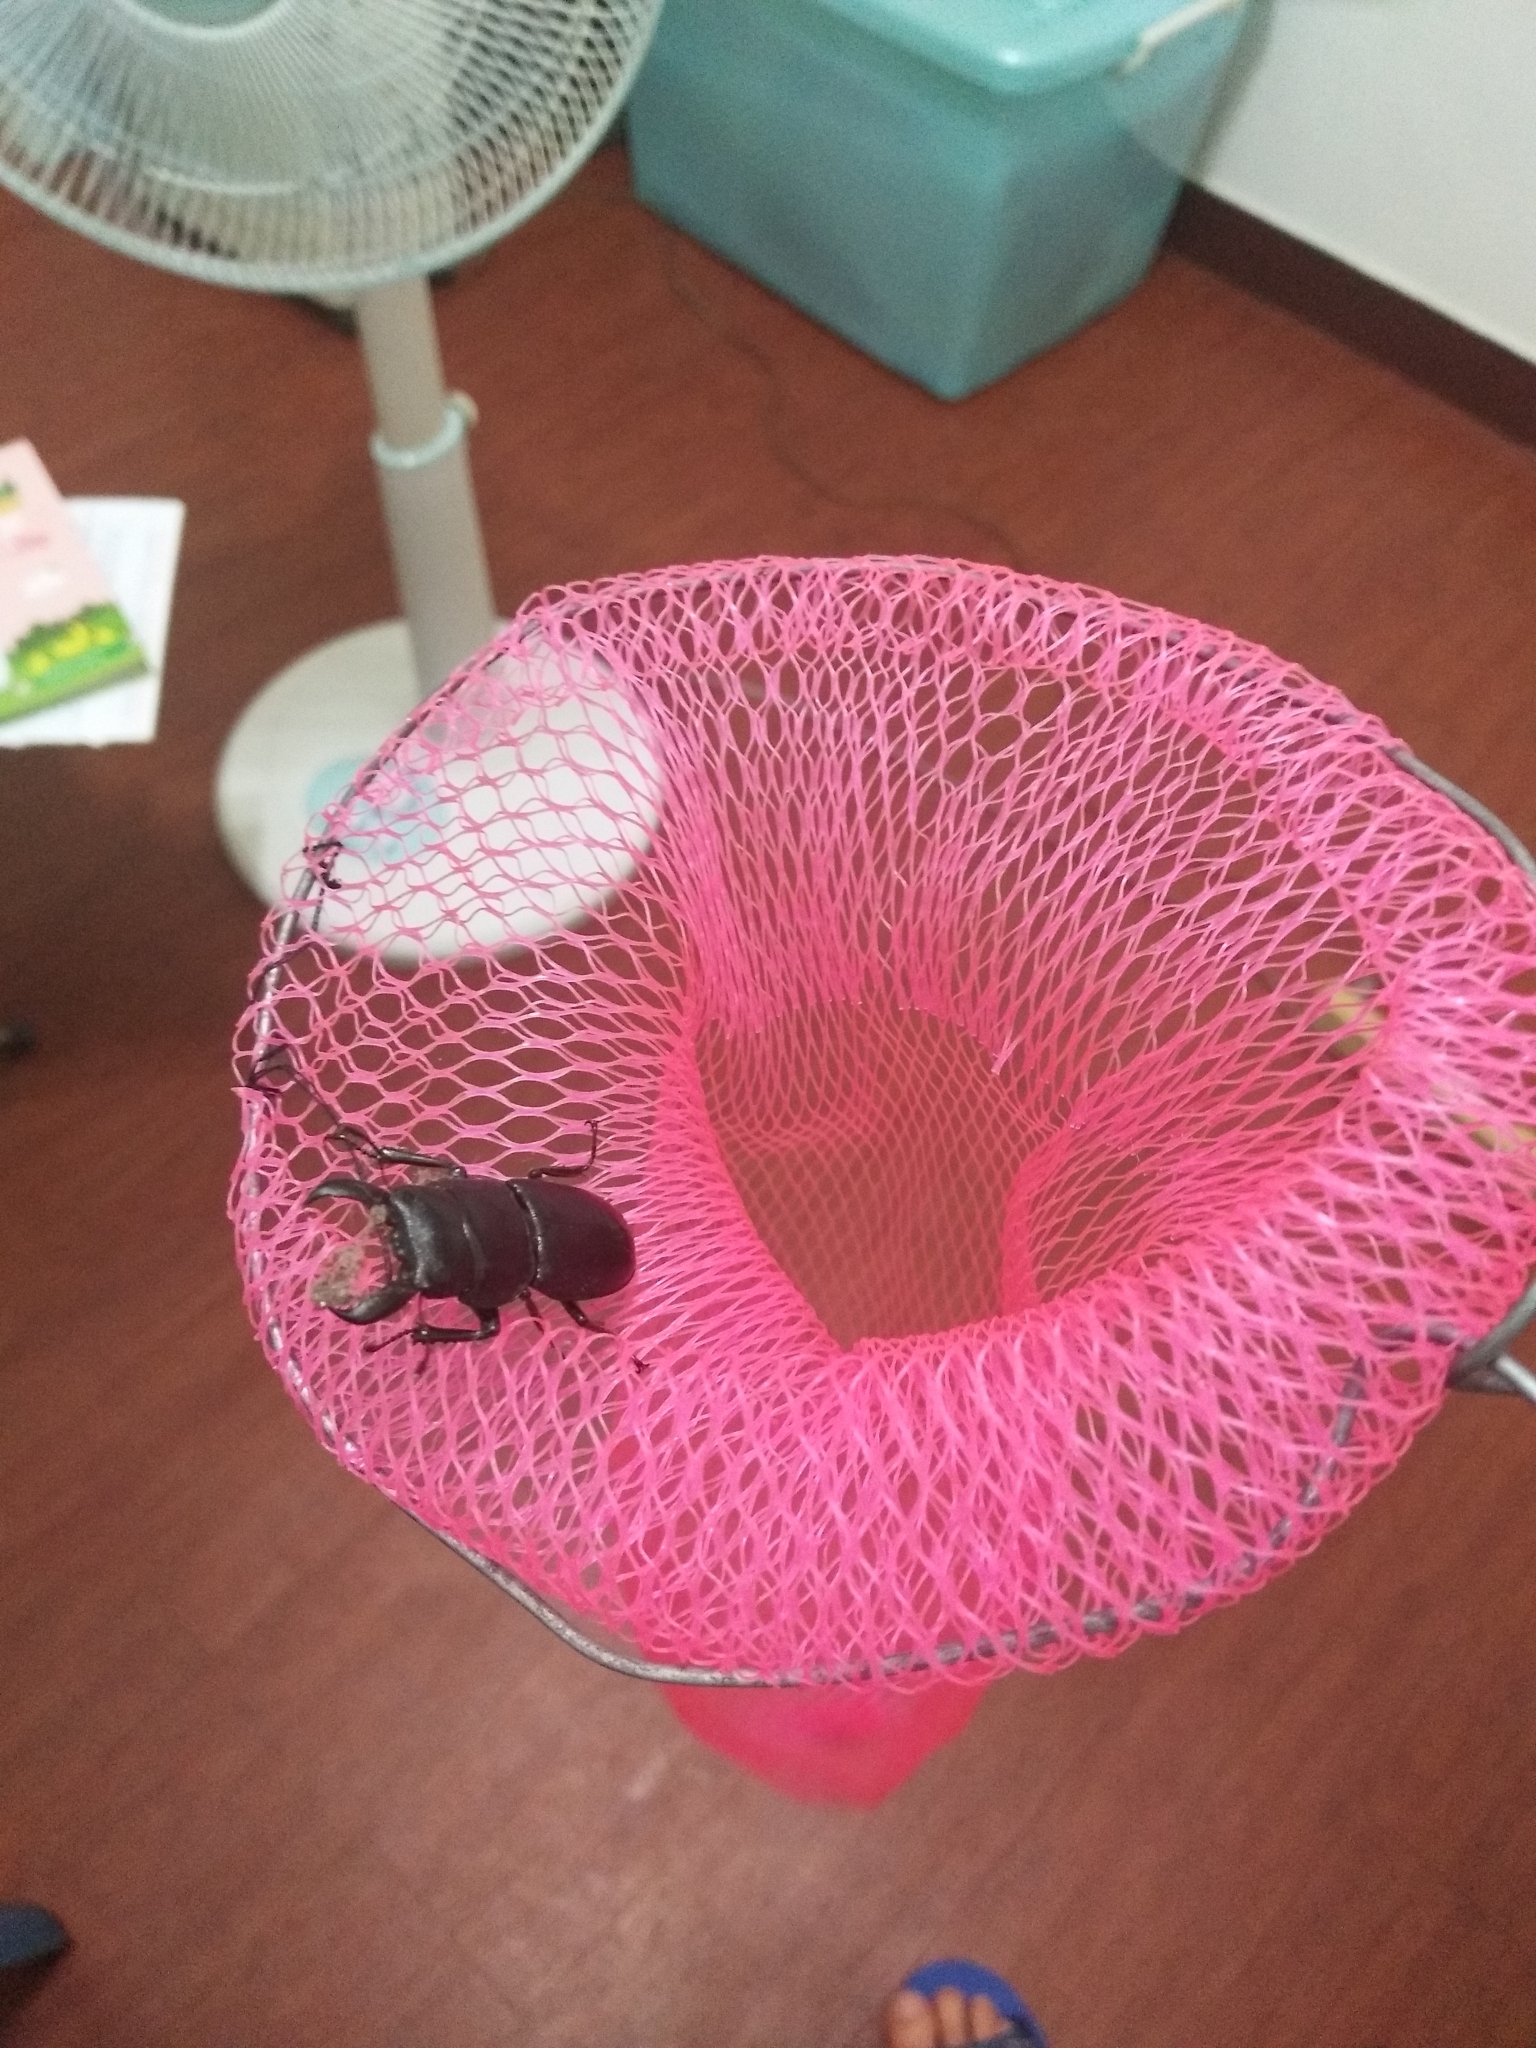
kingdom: Animalia
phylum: Arthropoda
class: Insecta
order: Coleoptera
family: Lucanidae
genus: Serrognathus
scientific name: Serrognathus titanus
